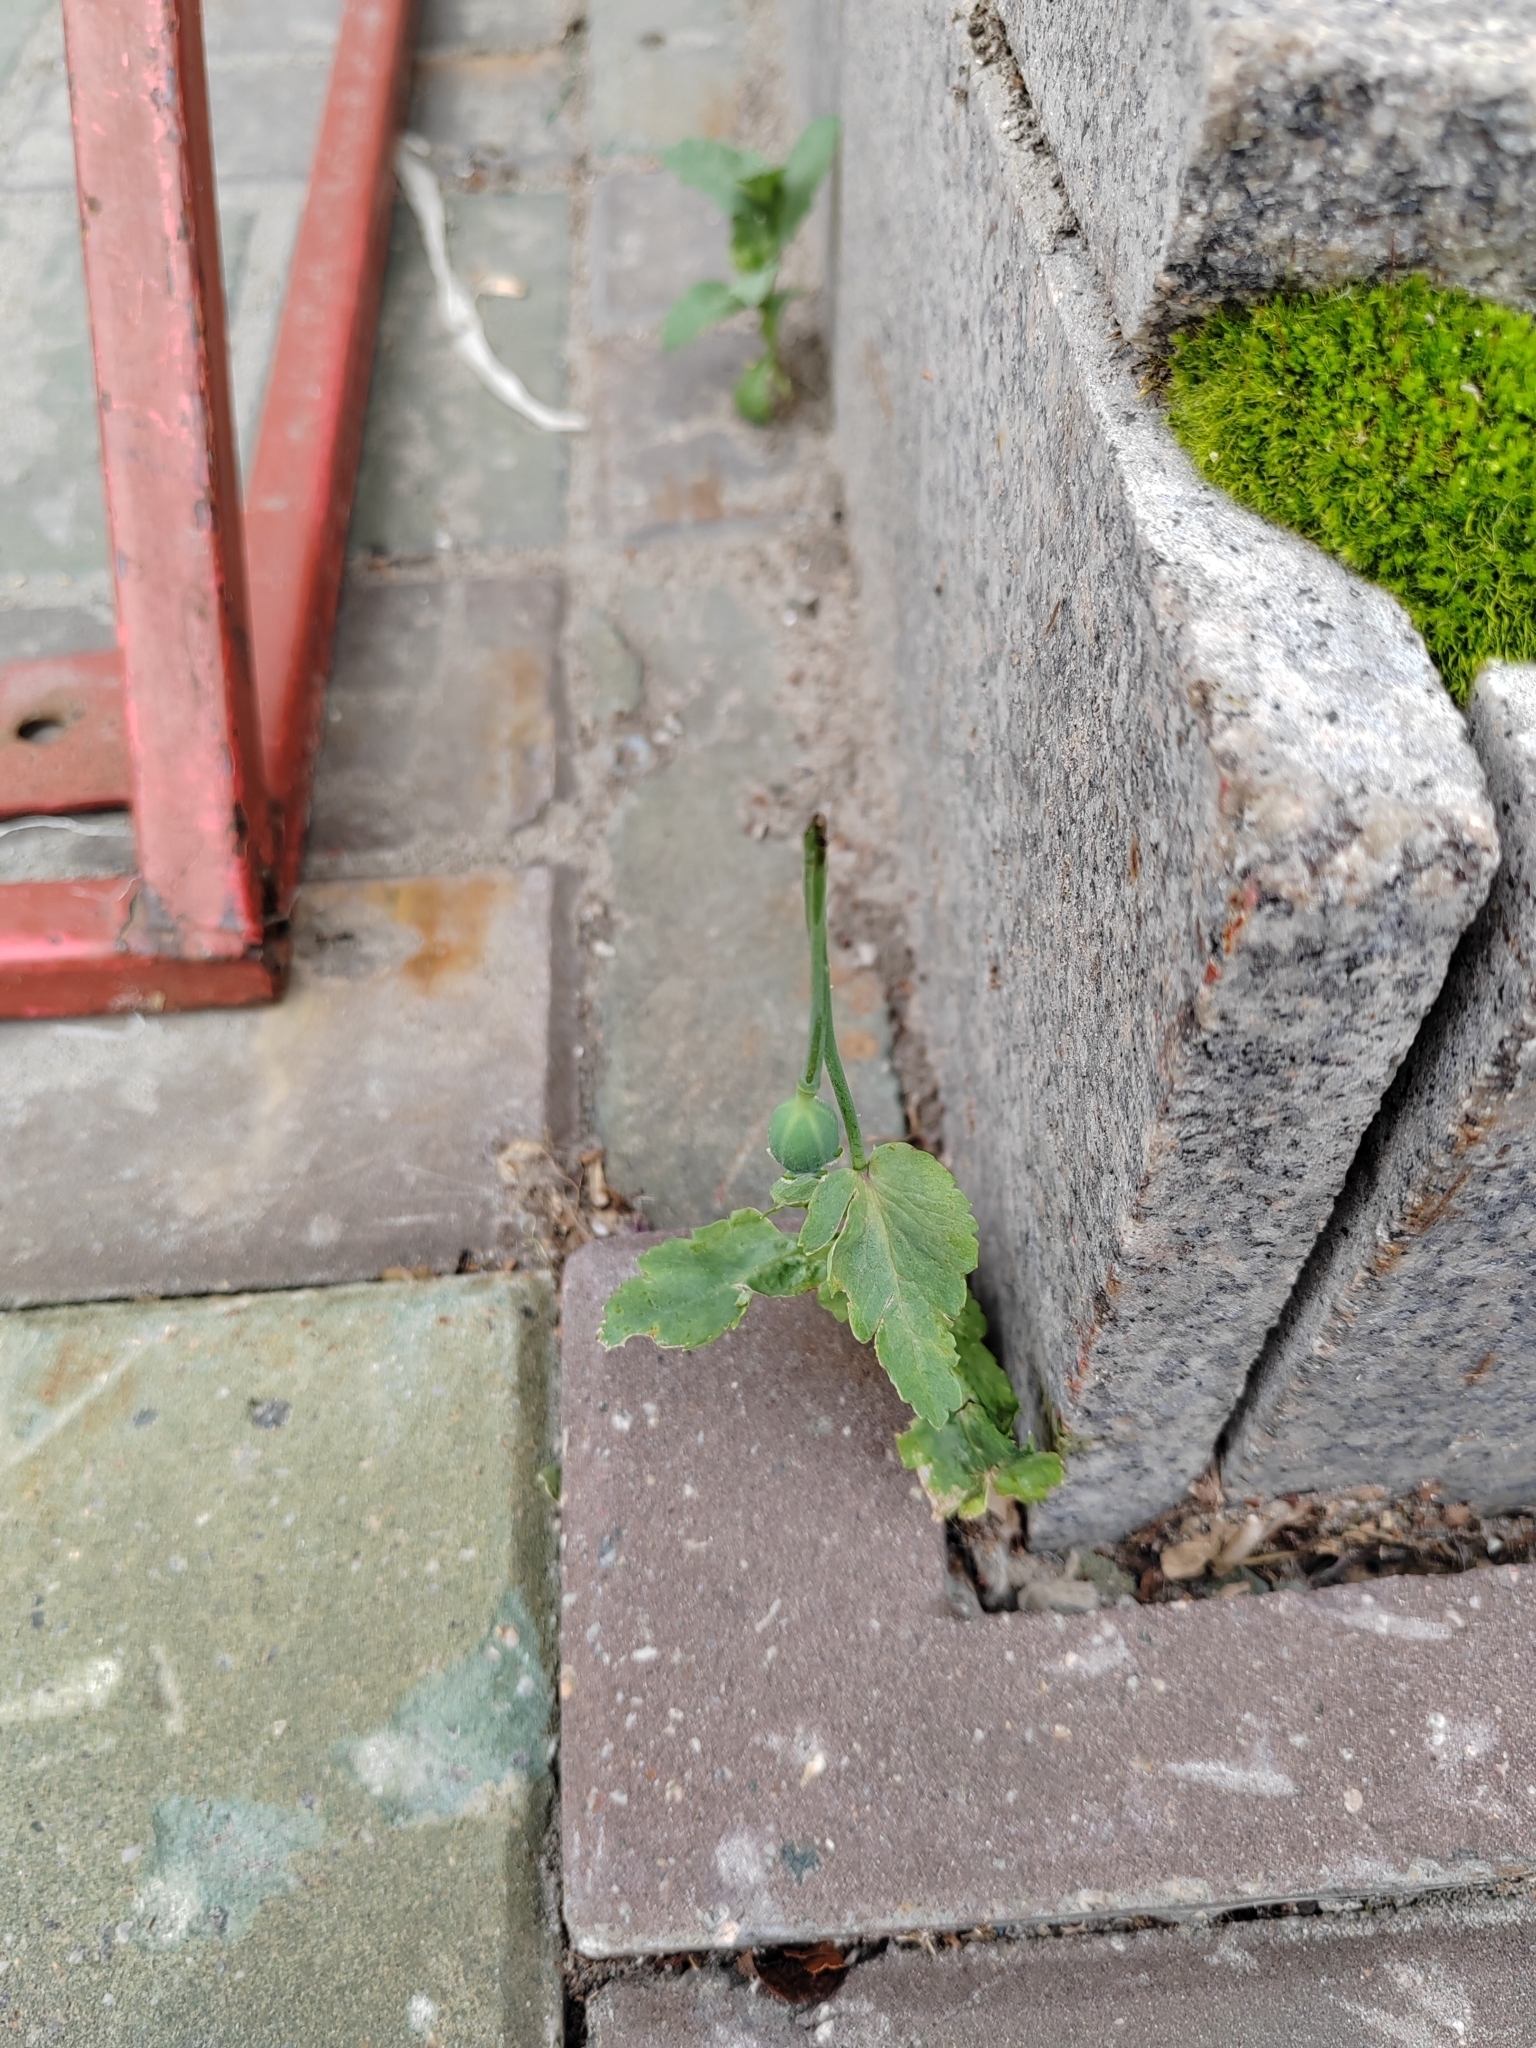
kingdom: Plantae
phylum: Tracheophyta
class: Magnoliopsida
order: Ranunculales
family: Papaveraceae
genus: Papaver
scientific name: Papaver somniferum
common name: Opium poppy
